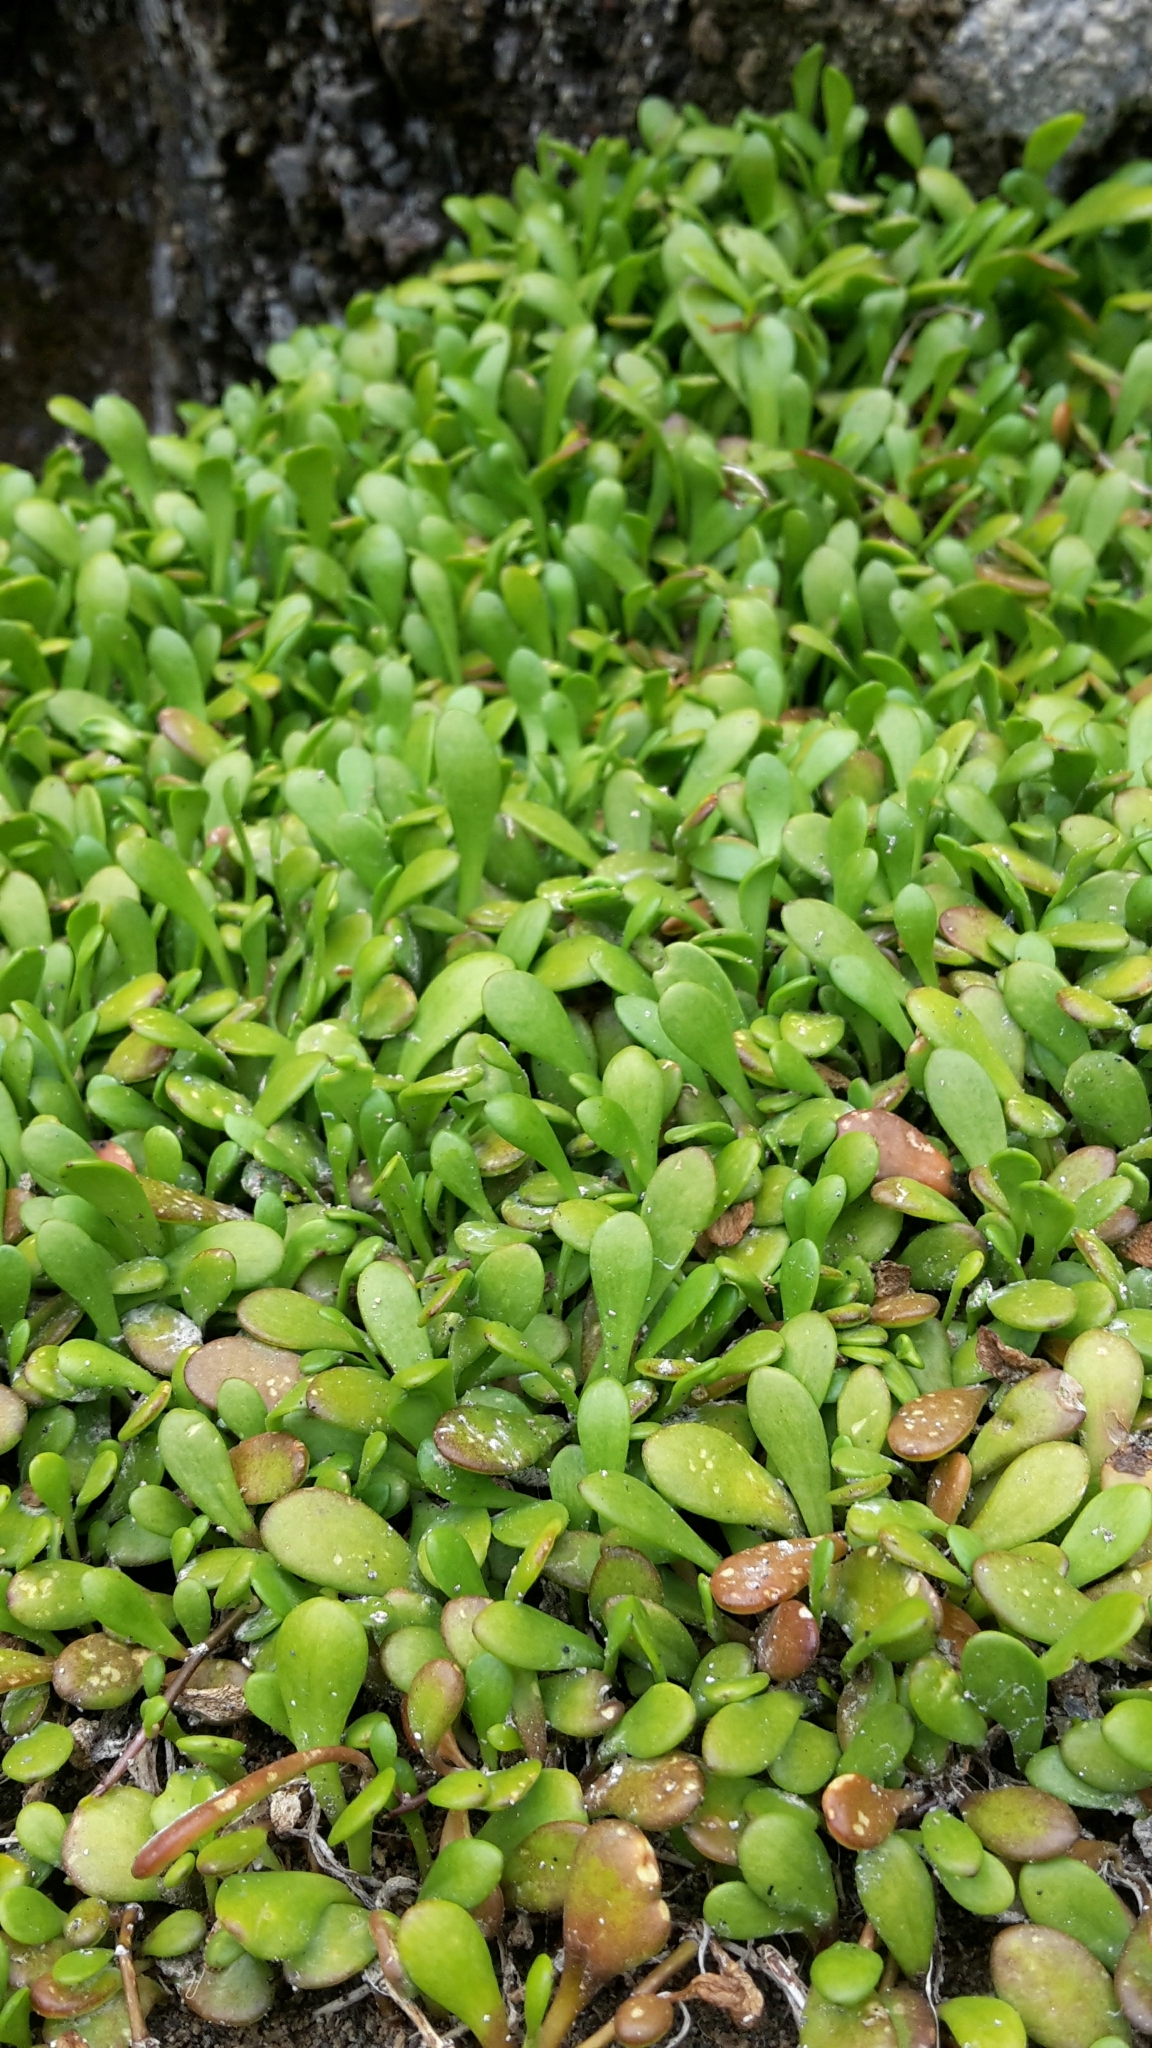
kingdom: Plantae
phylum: Tracheophyta
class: Magnoliopsida
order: Asterales
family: Goodeniaceae
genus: Goodenia
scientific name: Goodenia radicans
